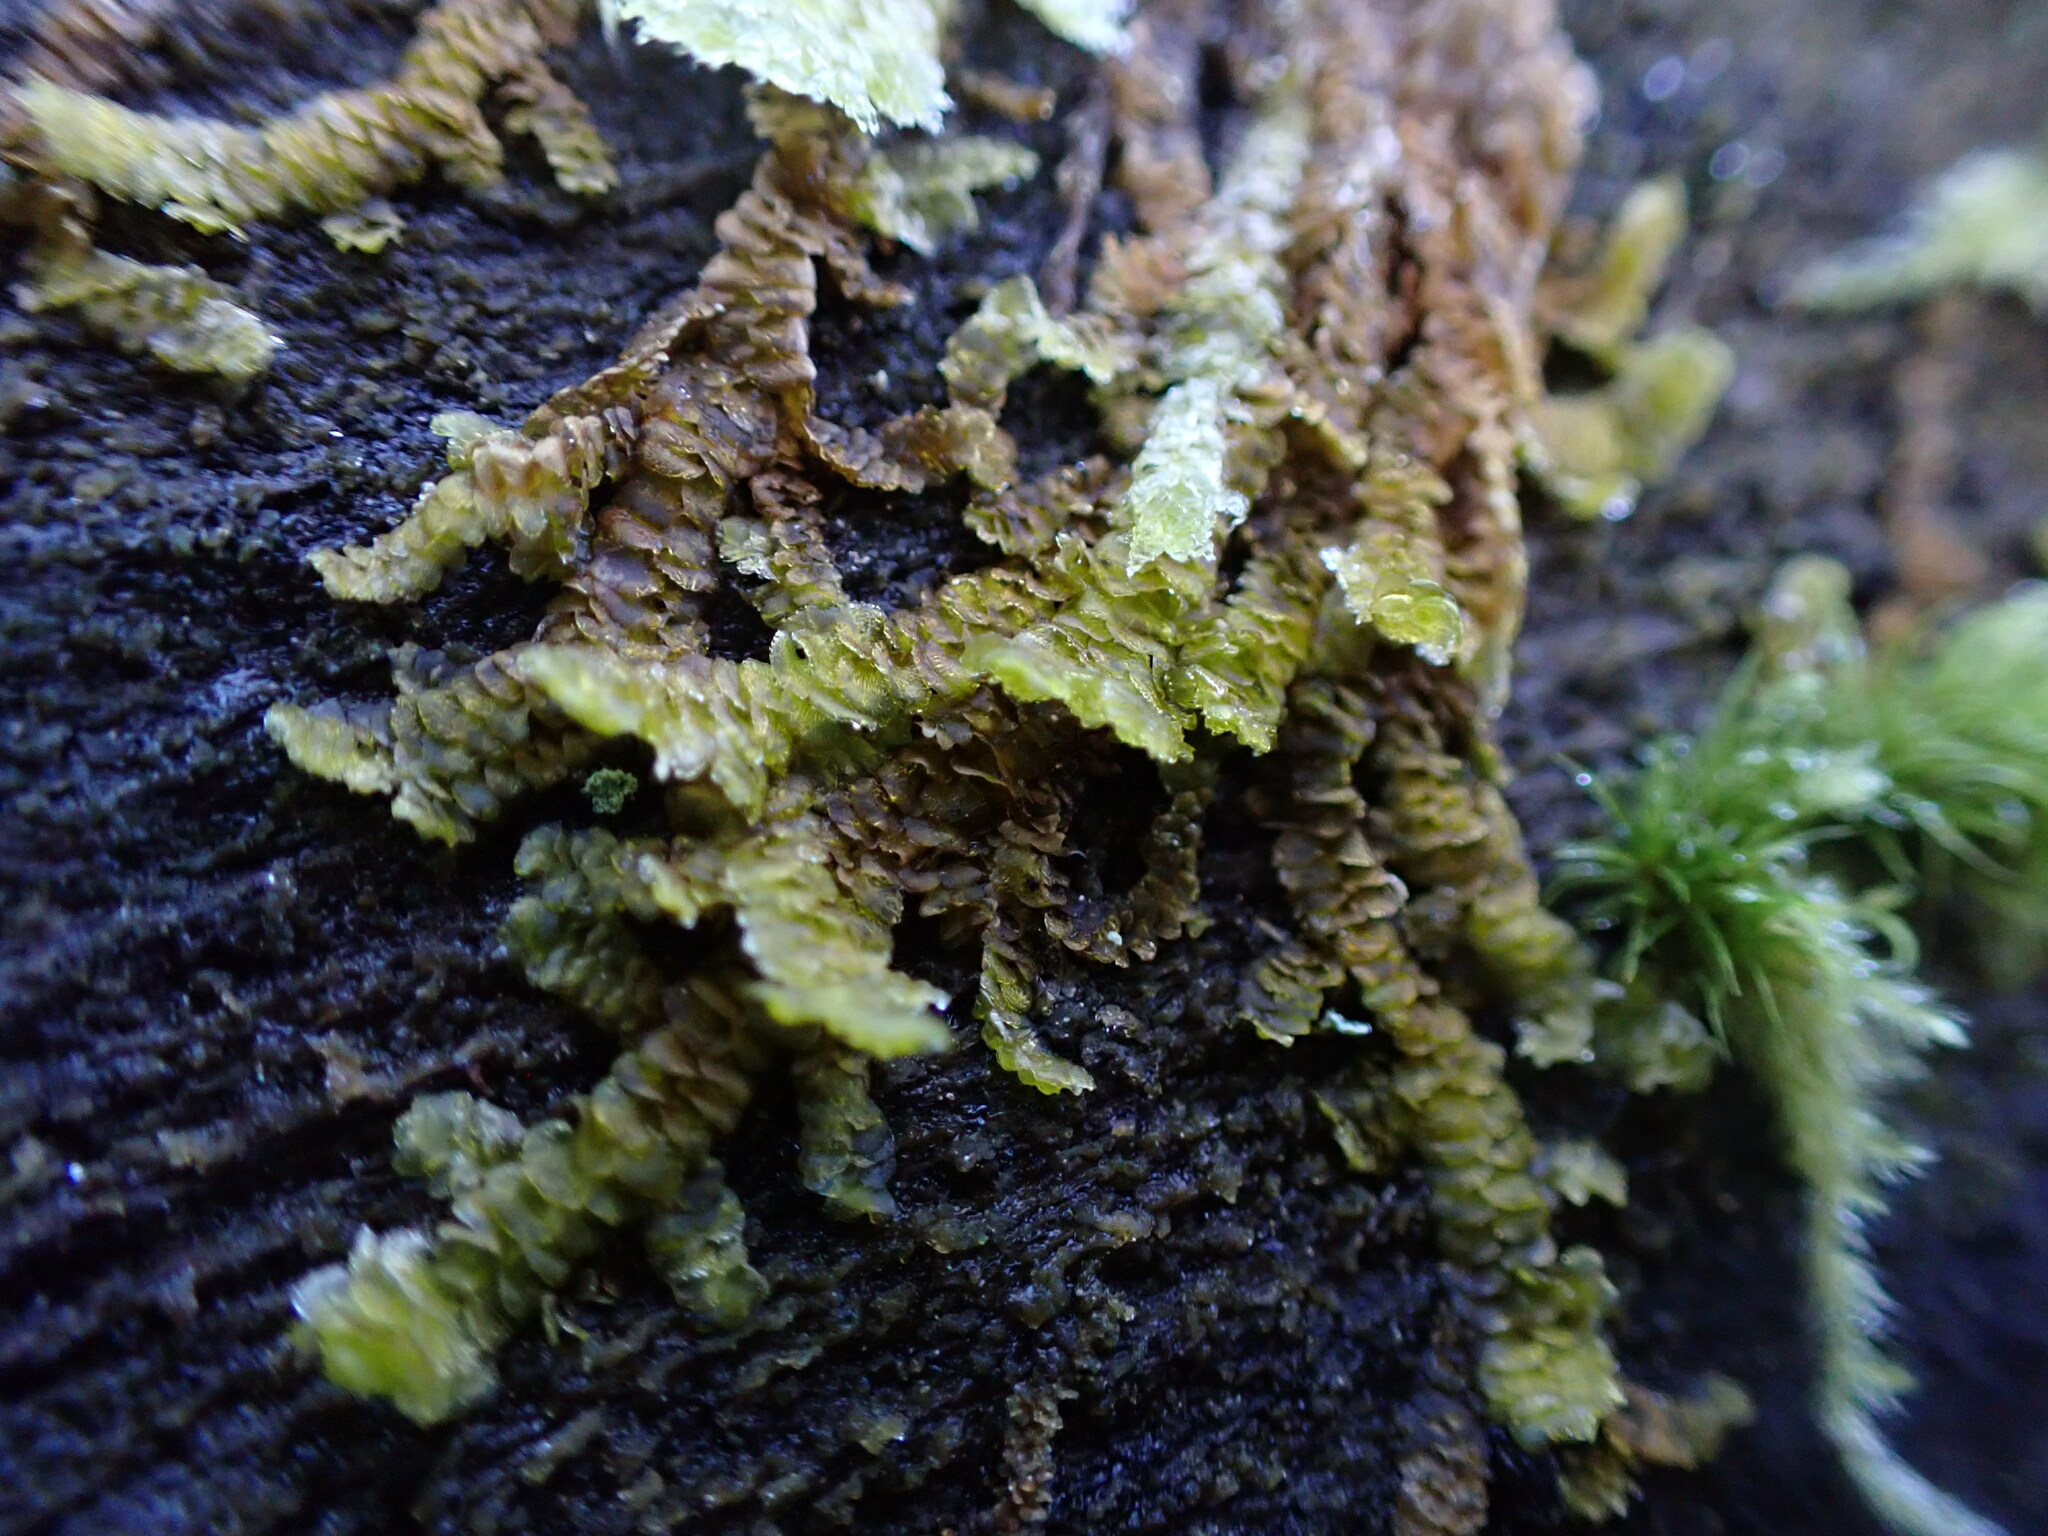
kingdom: Plantae
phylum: Marchantiophyta
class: Jungermanniopsida
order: Porellales
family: Porellaceae
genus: Porella
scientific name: Porella navicularis
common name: Tree ruffle liverwort
